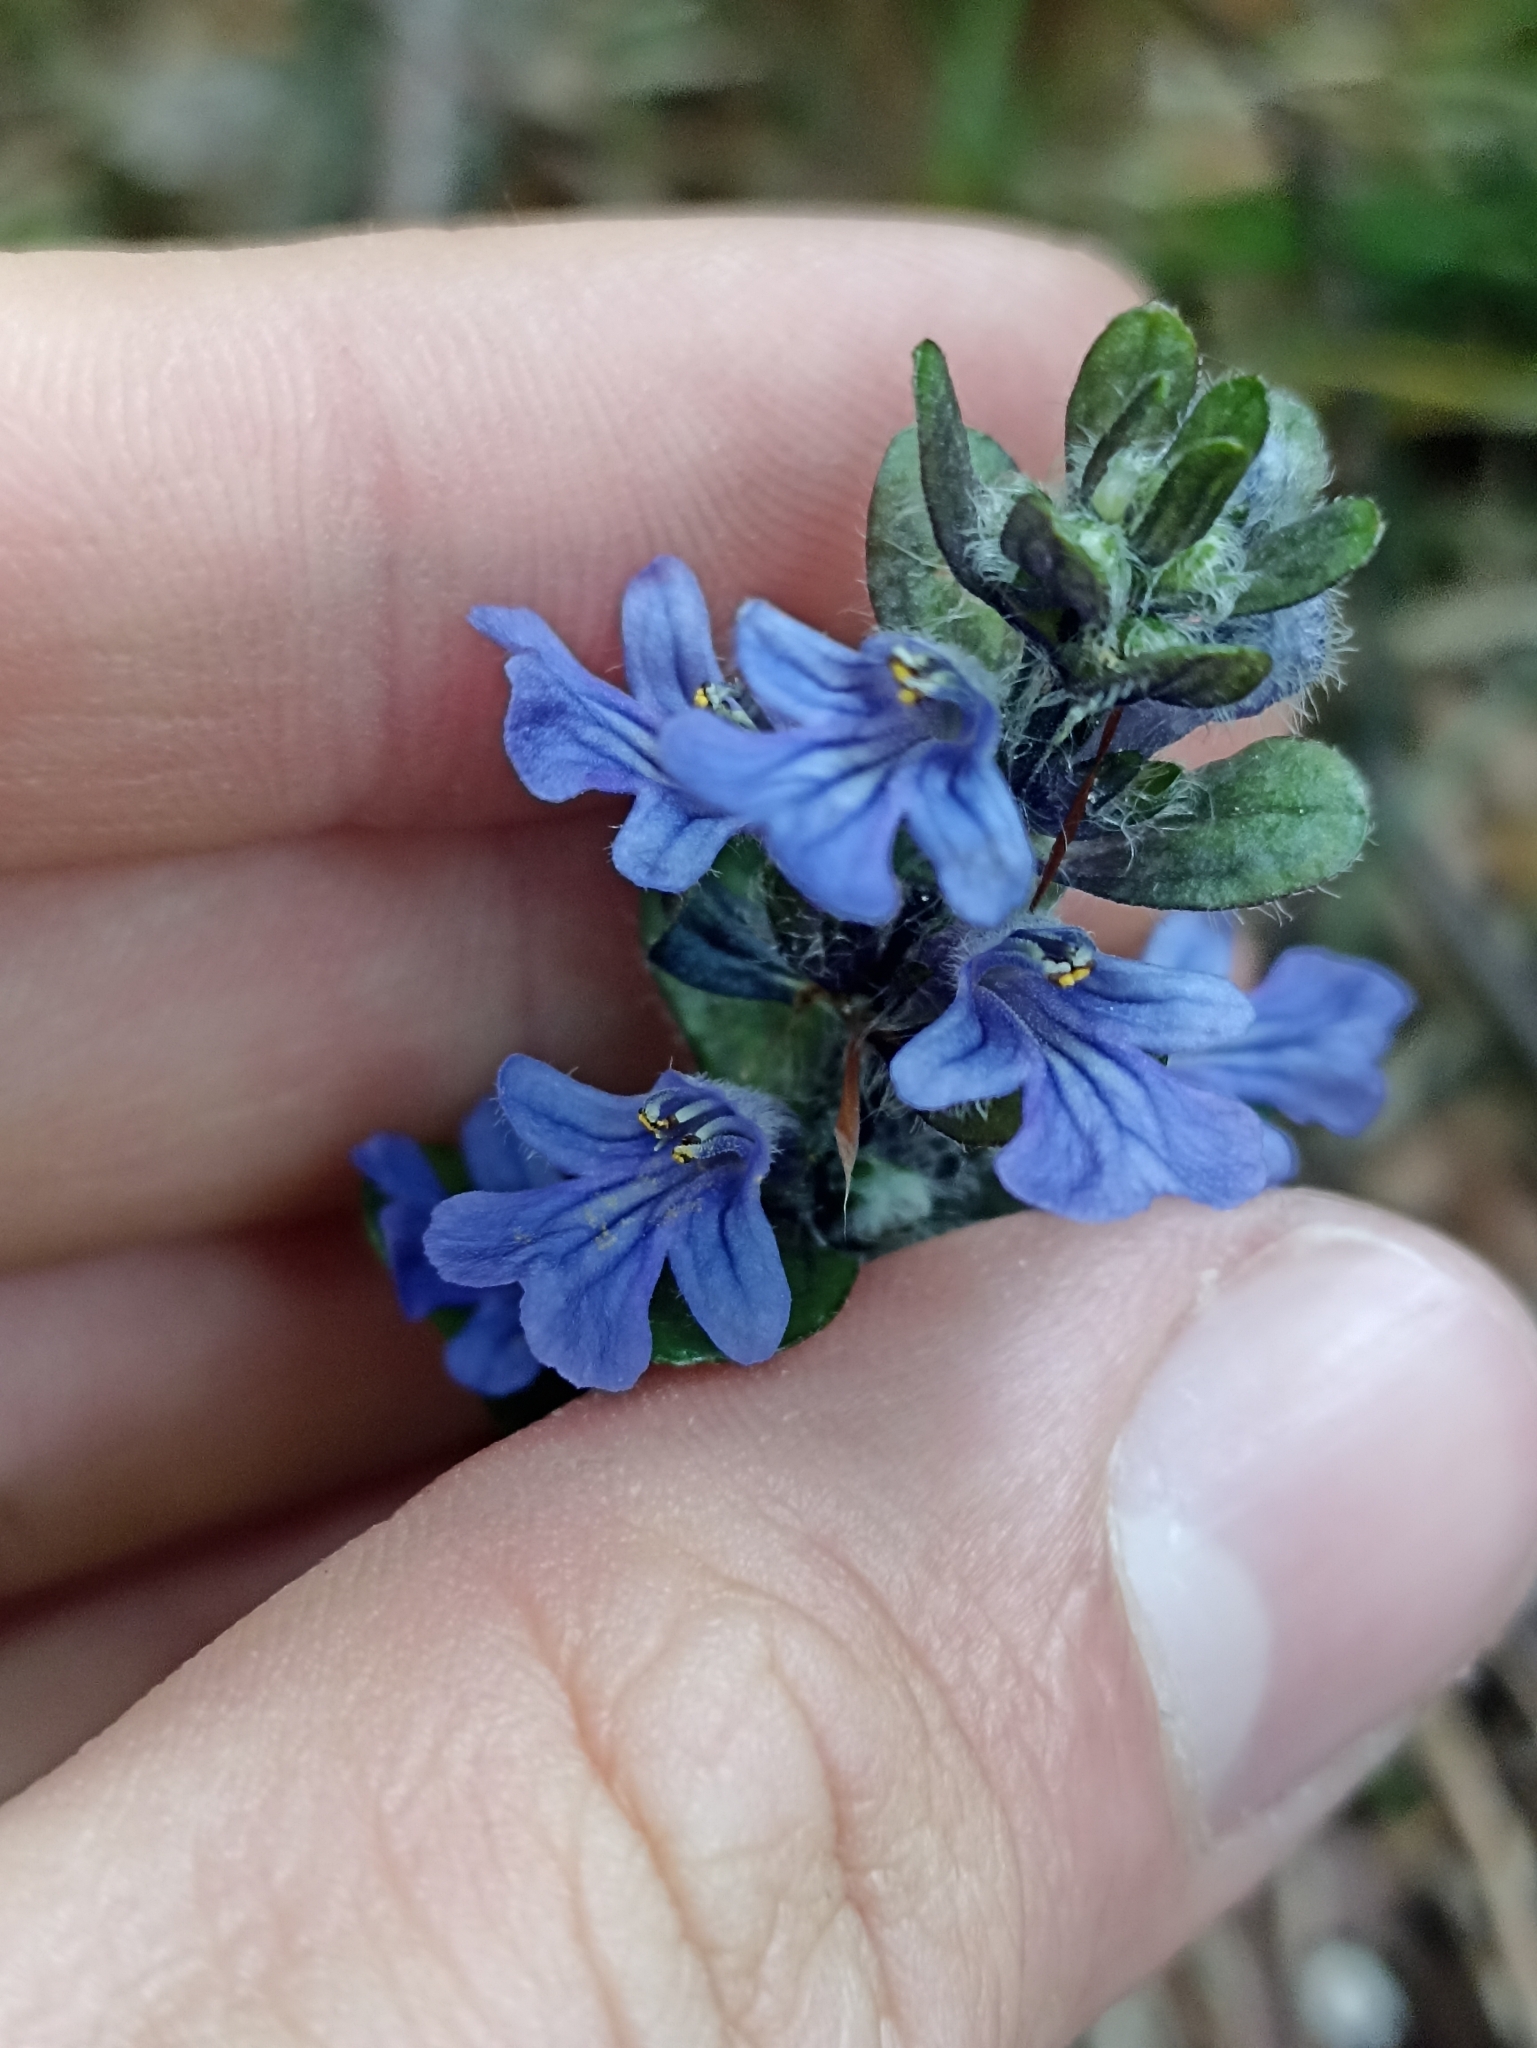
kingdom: Plantae
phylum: Tracheophyta
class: Magnoliopsida
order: Lamiales
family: Lamiaceae
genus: Ajuga
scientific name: Ajuga reptans
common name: Bugle
